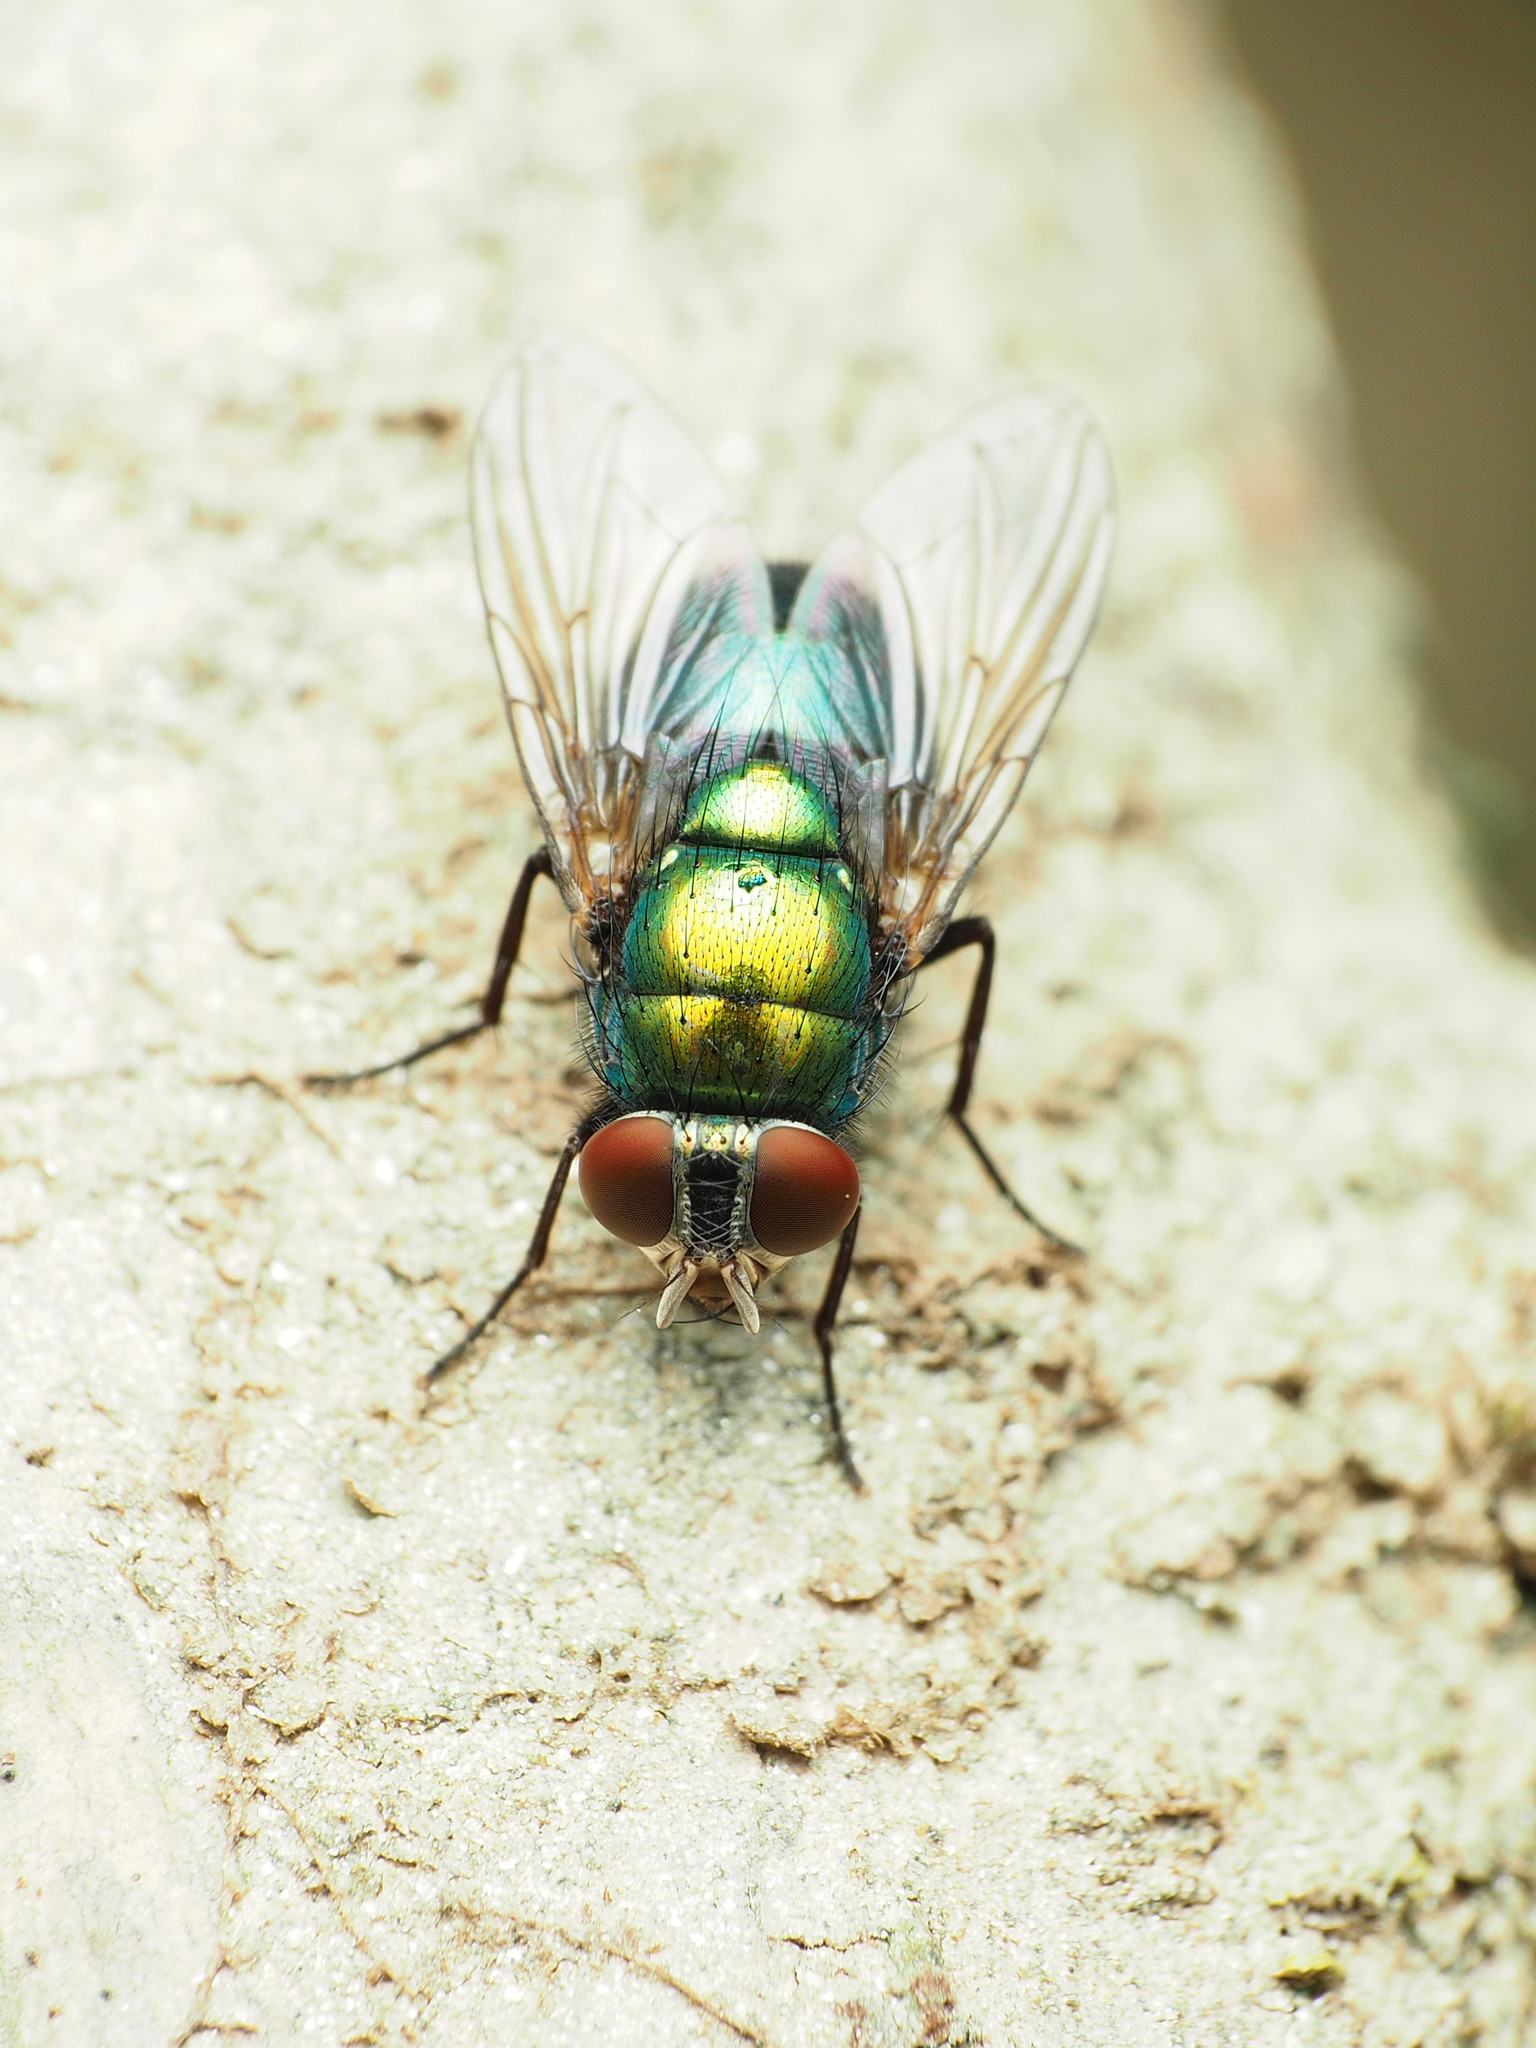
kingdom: Animalia
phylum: Arthropoda
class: Insecta
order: Diptera
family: Calliphoridae
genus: Lucilia
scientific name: Lucilia caeruleiviridis
